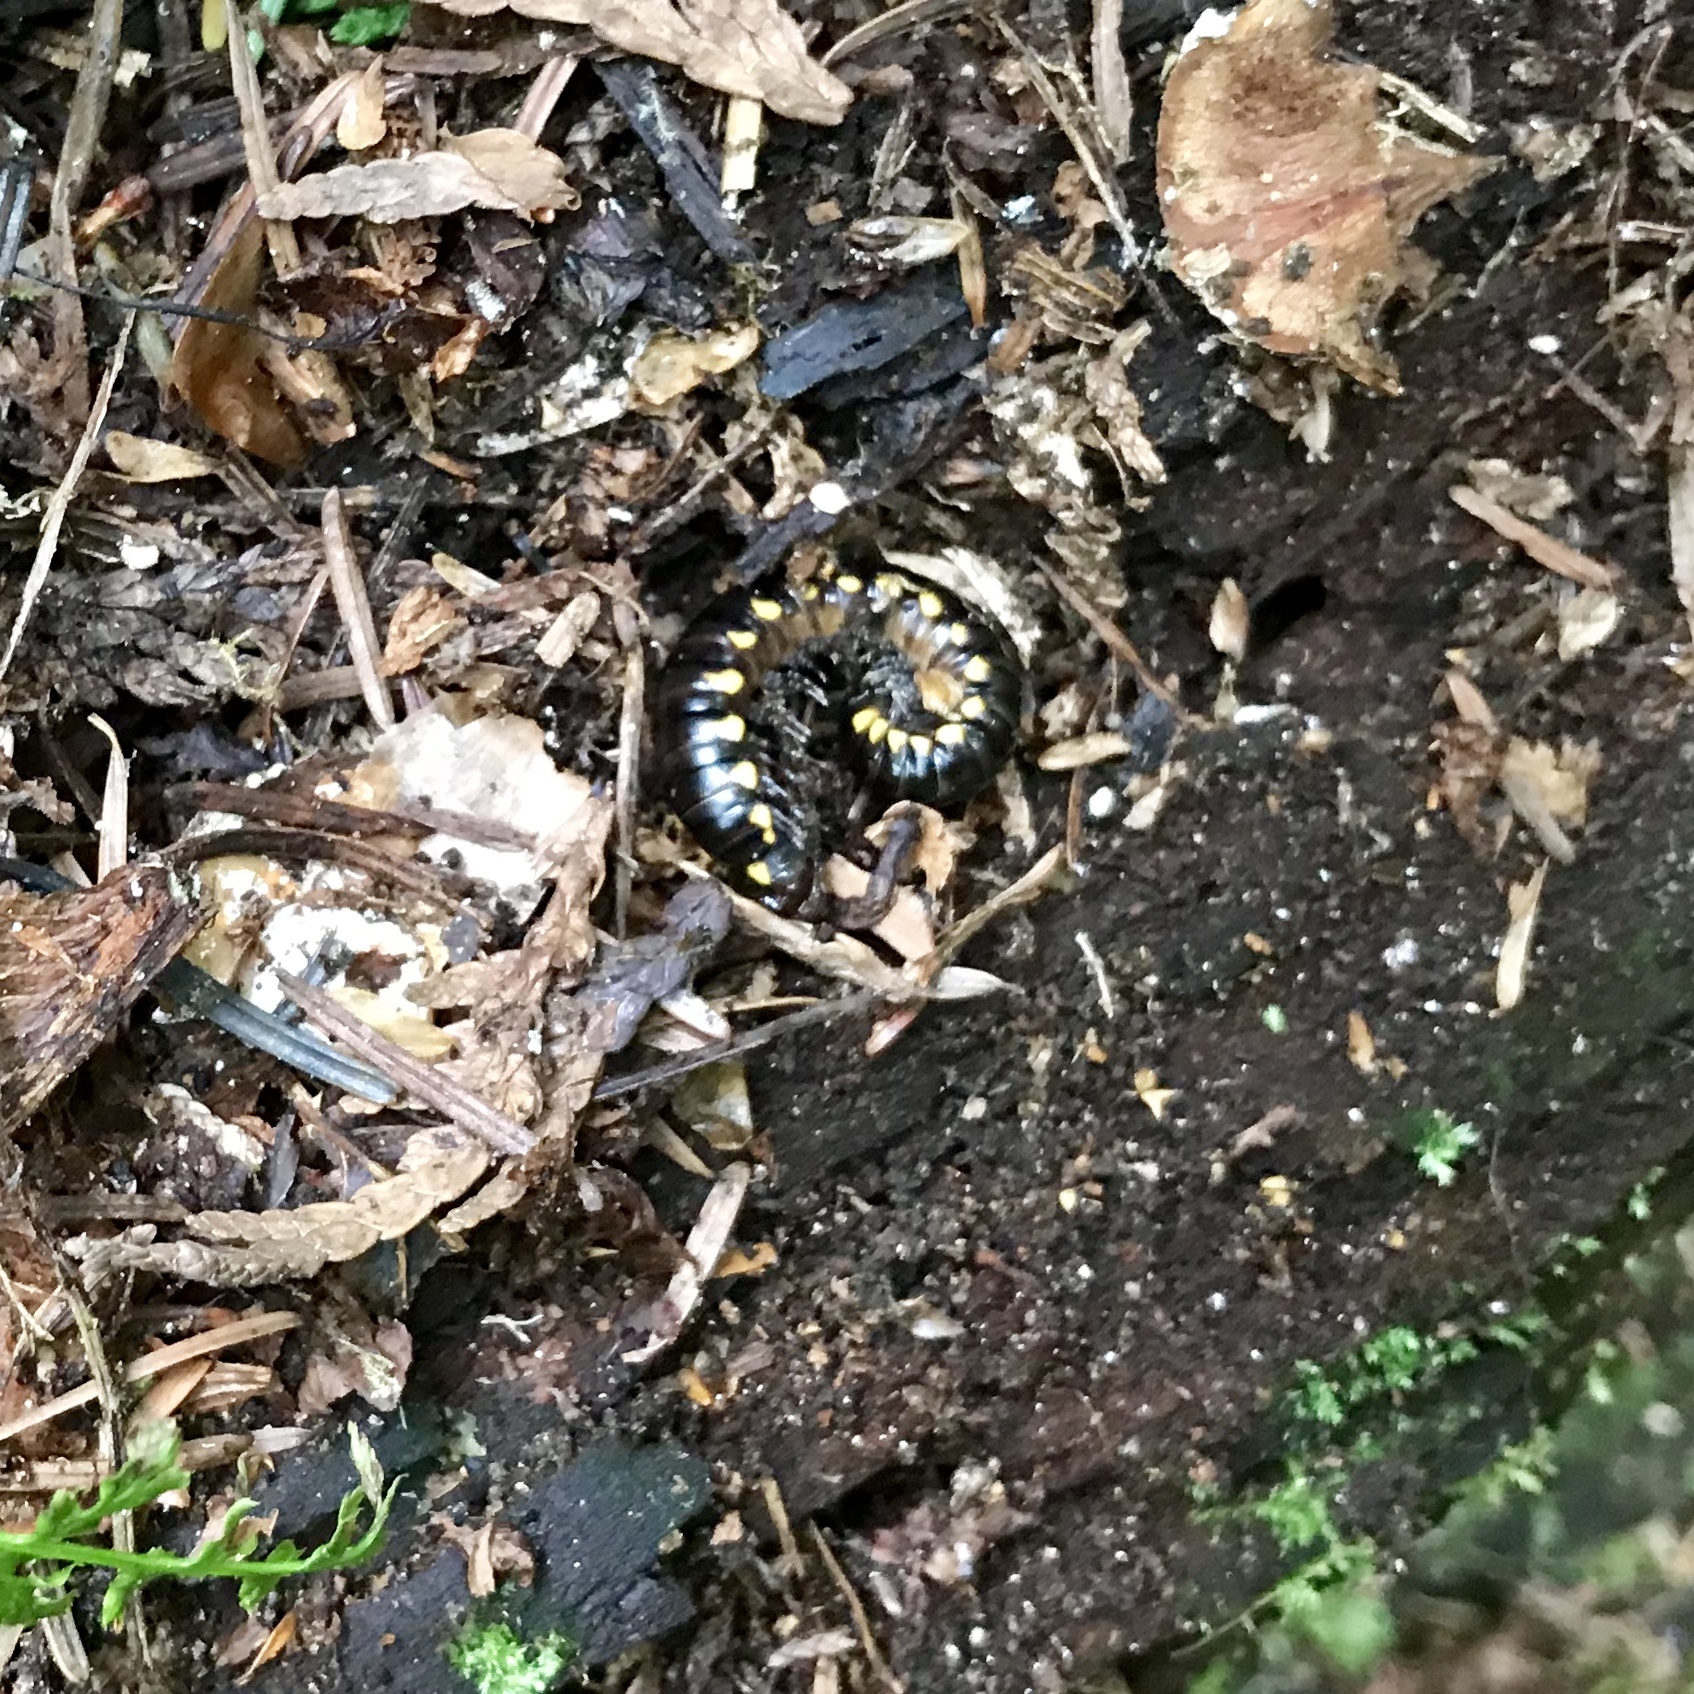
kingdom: Animalia
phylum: Arthropoda
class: Diplopoda
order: Polydesmida
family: Xystodesmidae
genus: Harpaphe
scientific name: Harpaphe haydeniana
